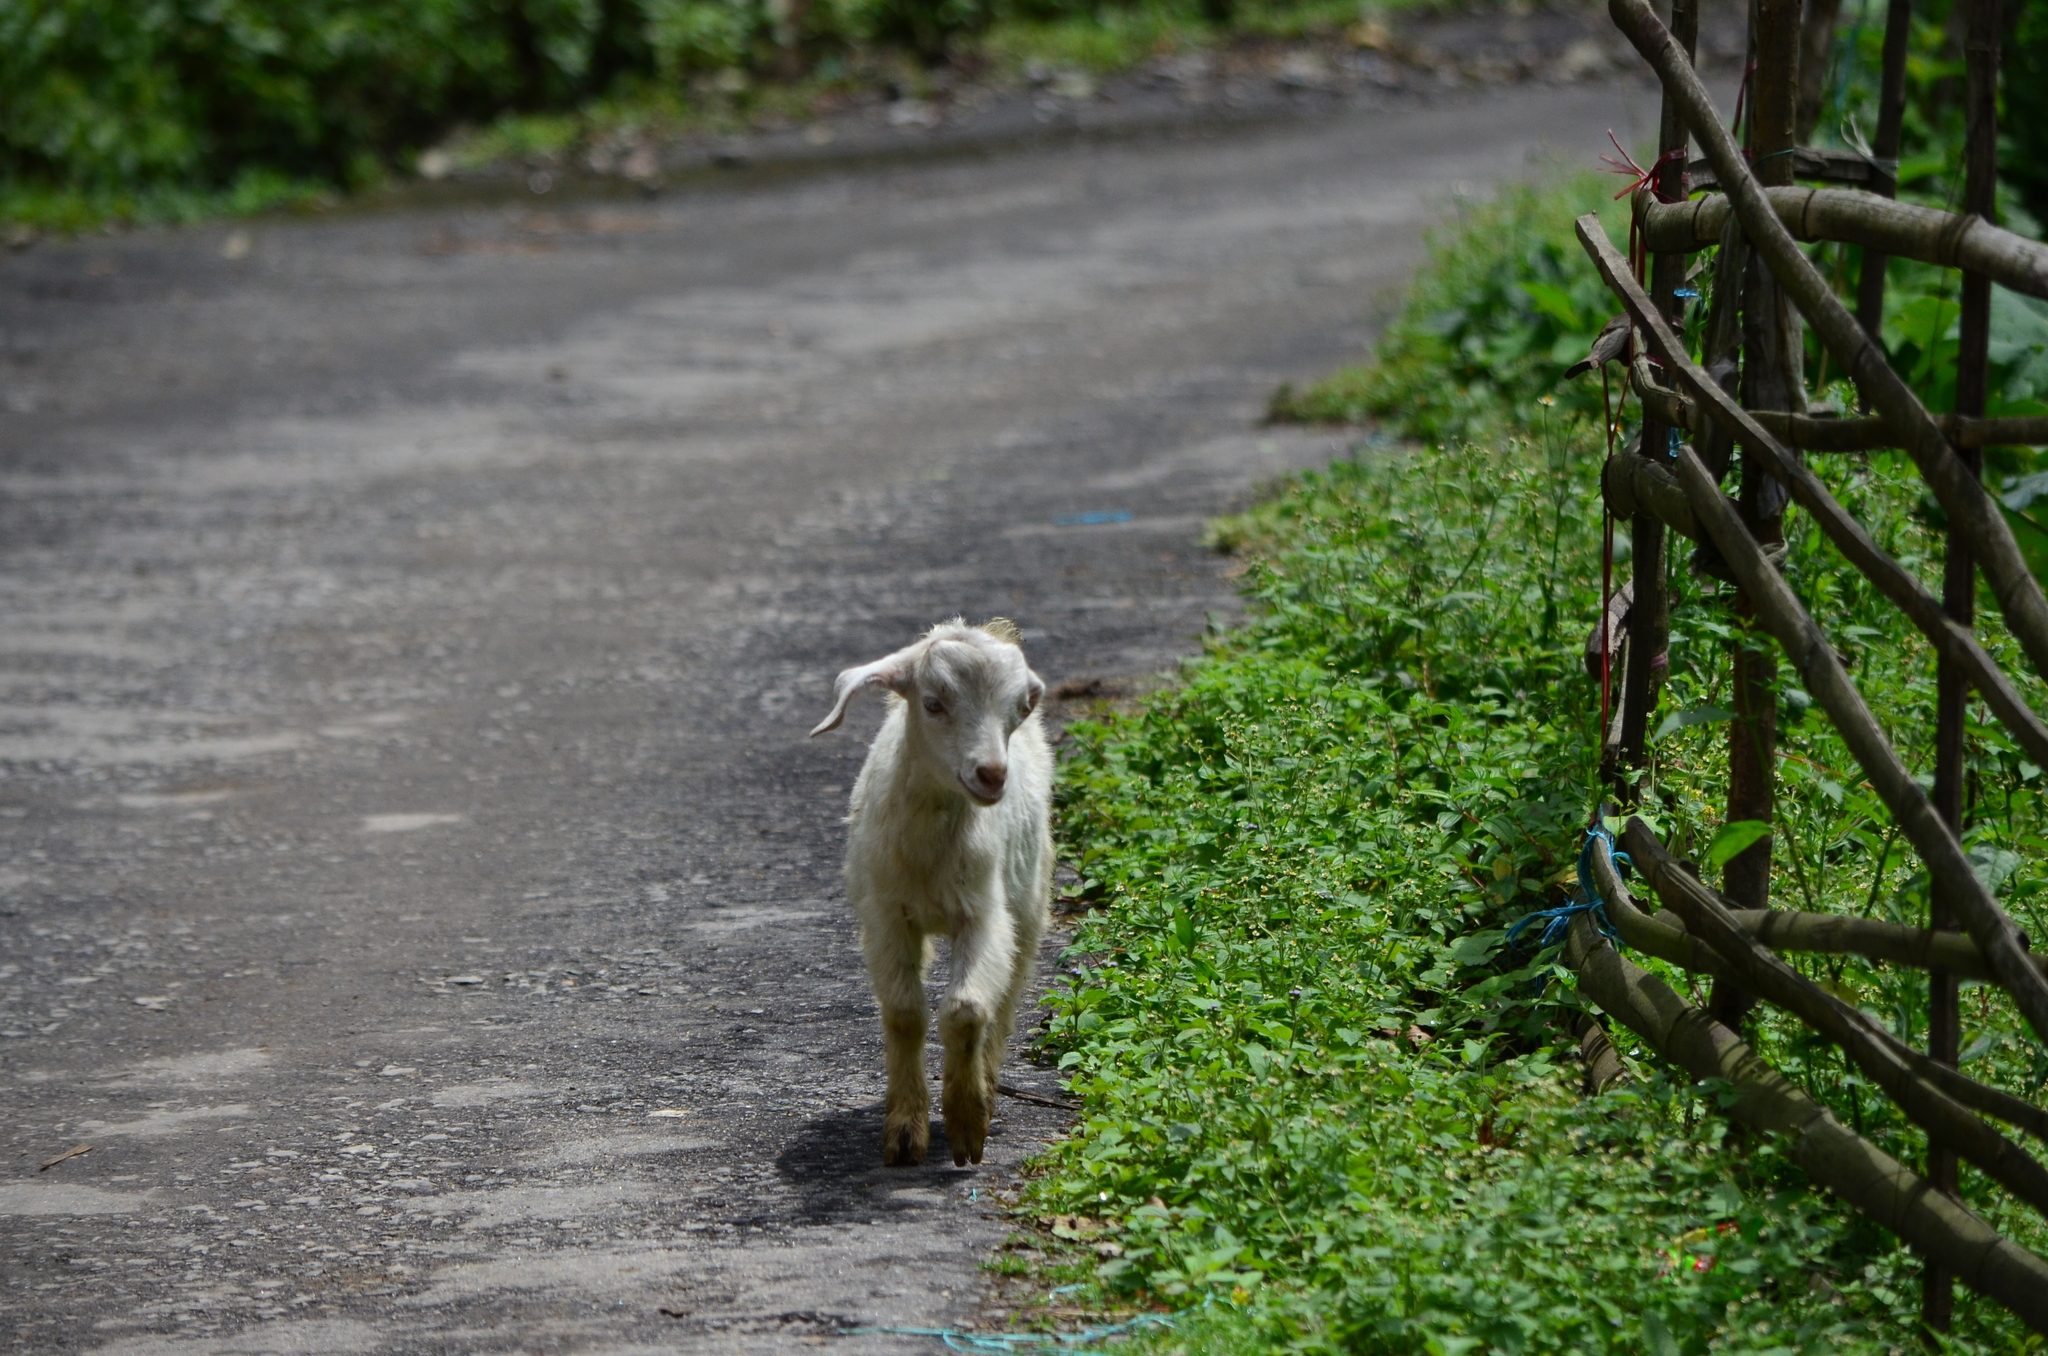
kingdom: Animalia
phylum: Chordata
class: Mammalia
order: Artiodactyla
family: Bovidae
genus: Capra
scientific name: Capra hircus
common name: Domestic goat
